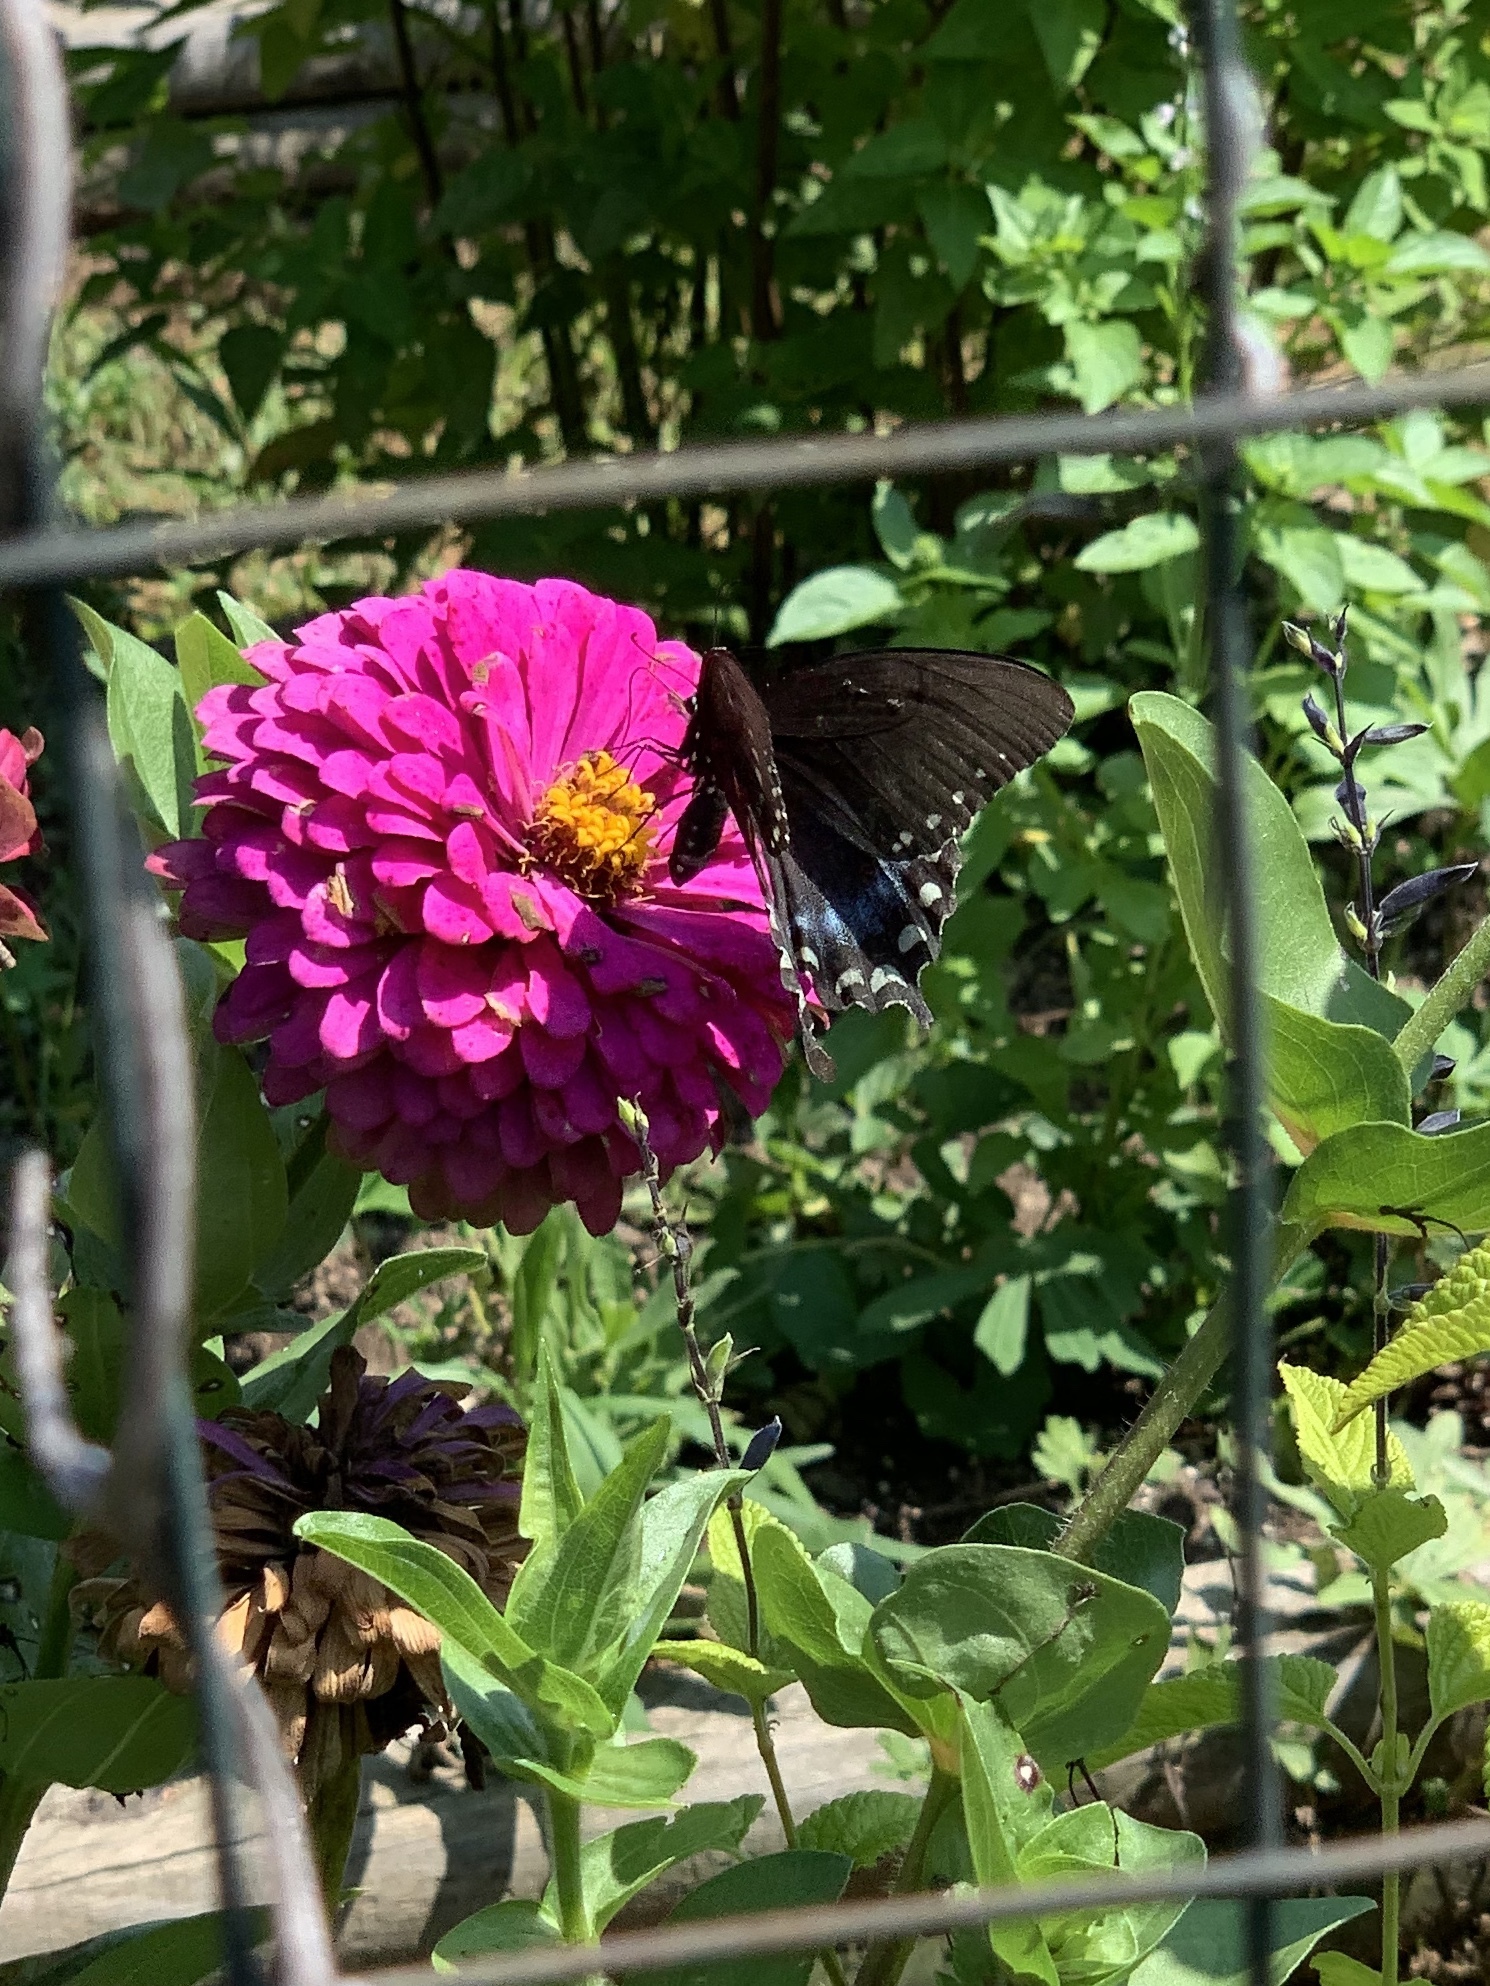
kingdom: Animalia
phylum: Arthropoda
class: Insecta
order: Lepidoptera
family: Papilionidae
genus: Papilio
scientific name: Papilio troilus
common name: Spicebush swallowtail
